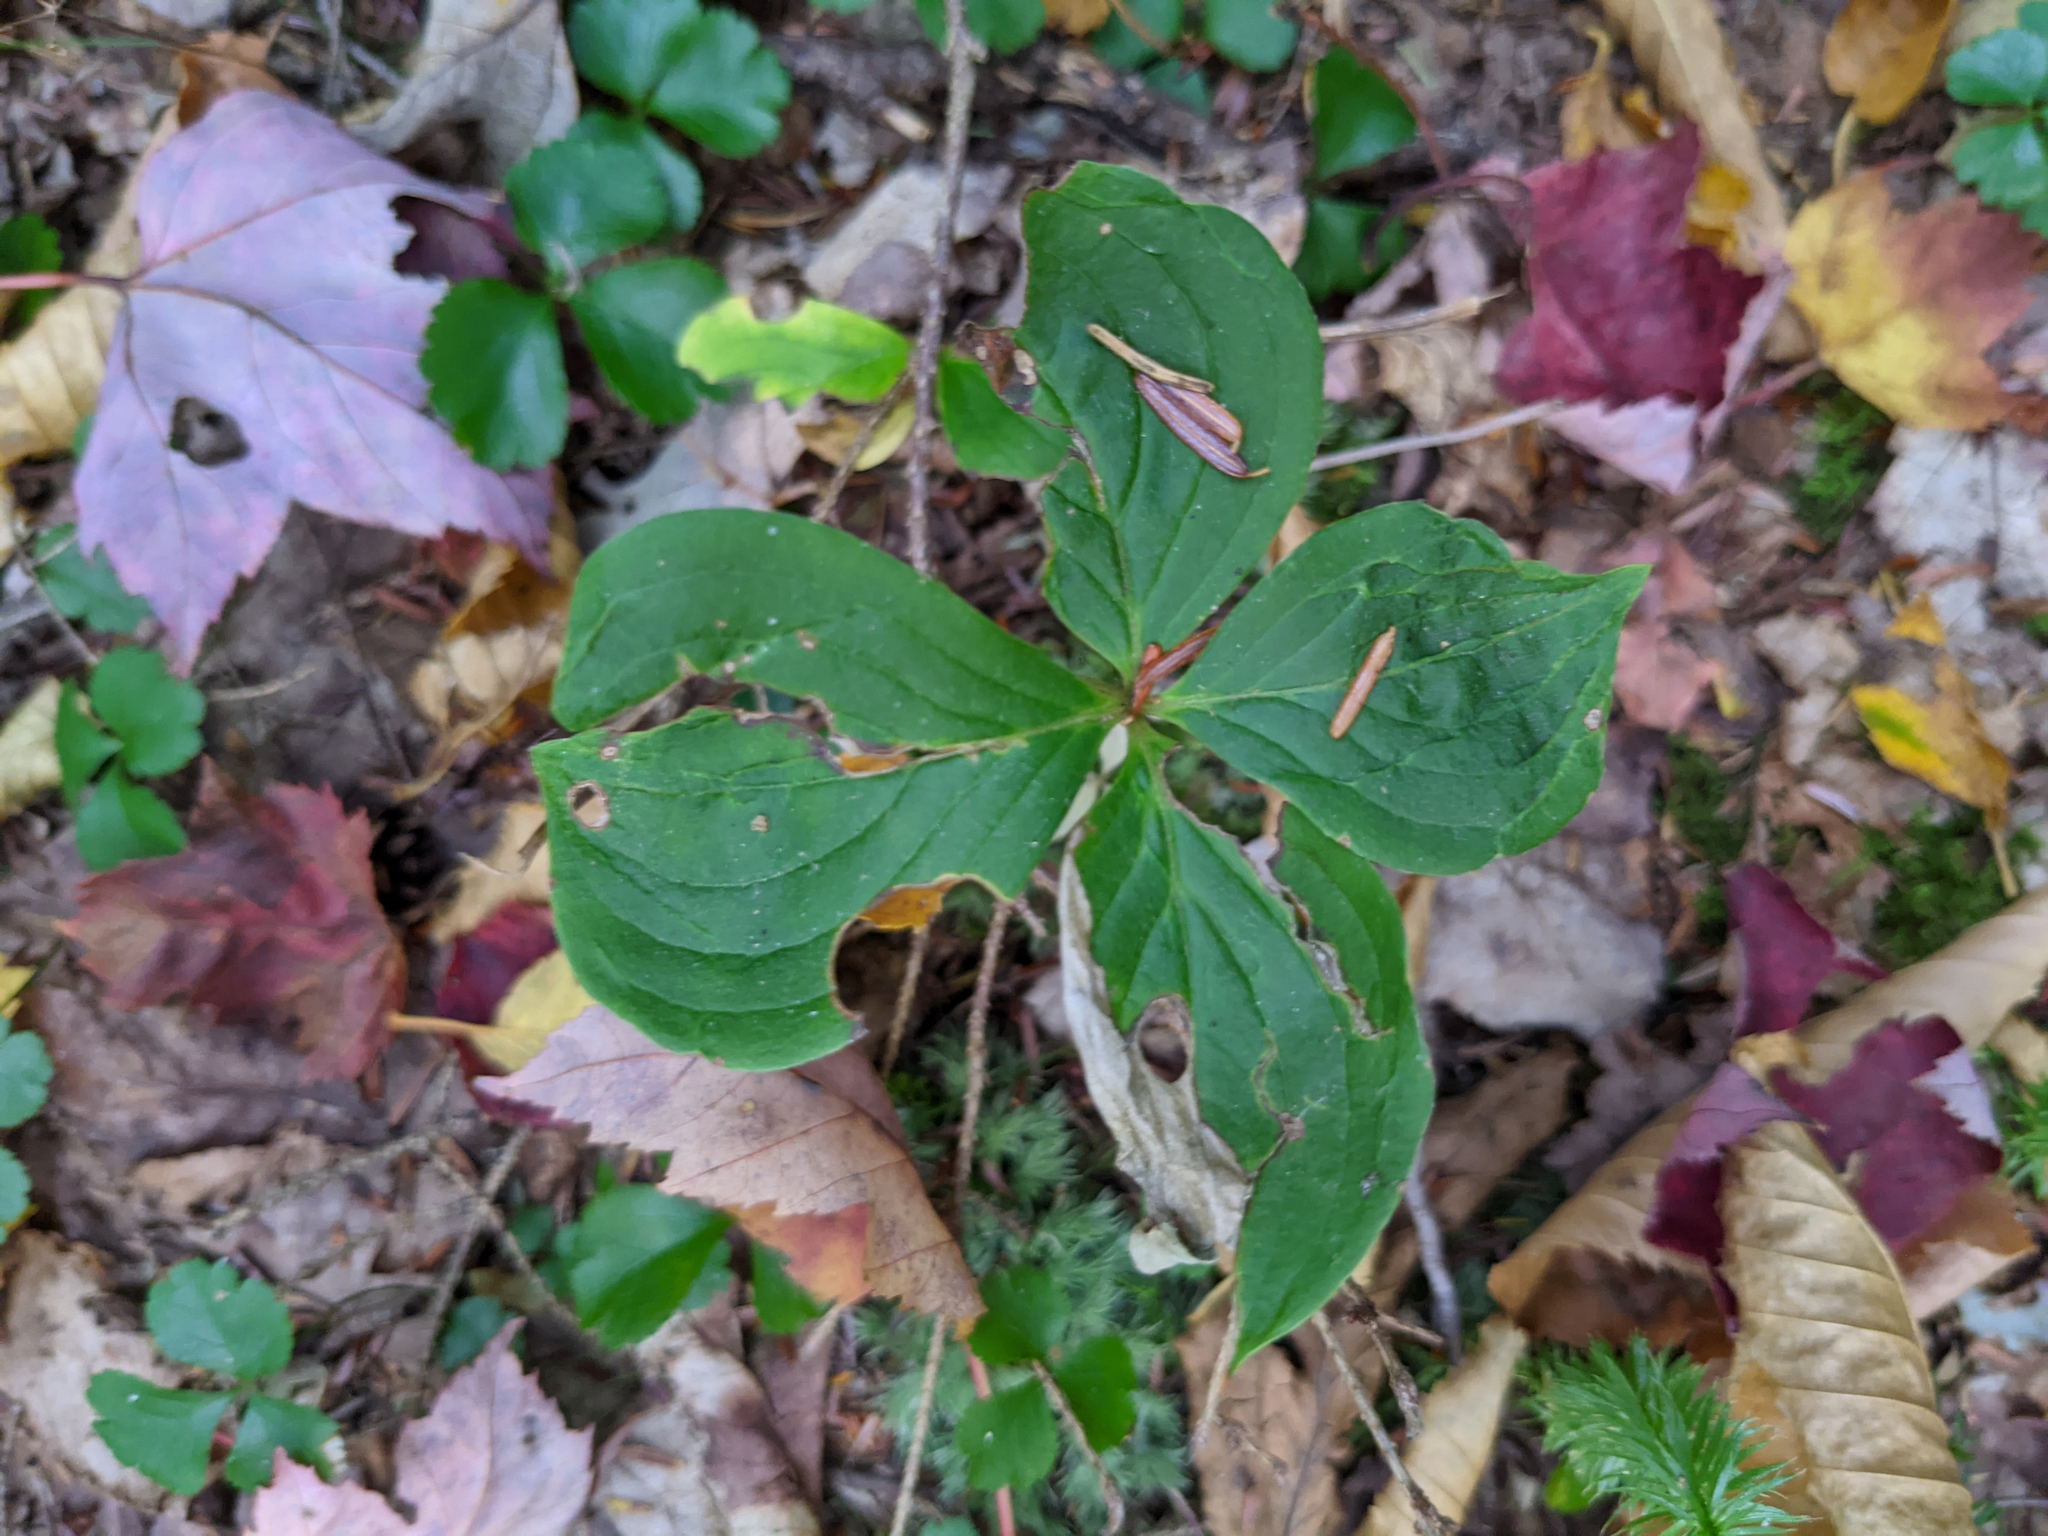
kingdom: Plantae
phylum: Tracheophyta
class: Magnoliopsida
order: Cornales
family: Cornaceae
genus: Cornus
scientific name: Cornus canadensis
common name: Creeping dogwood
